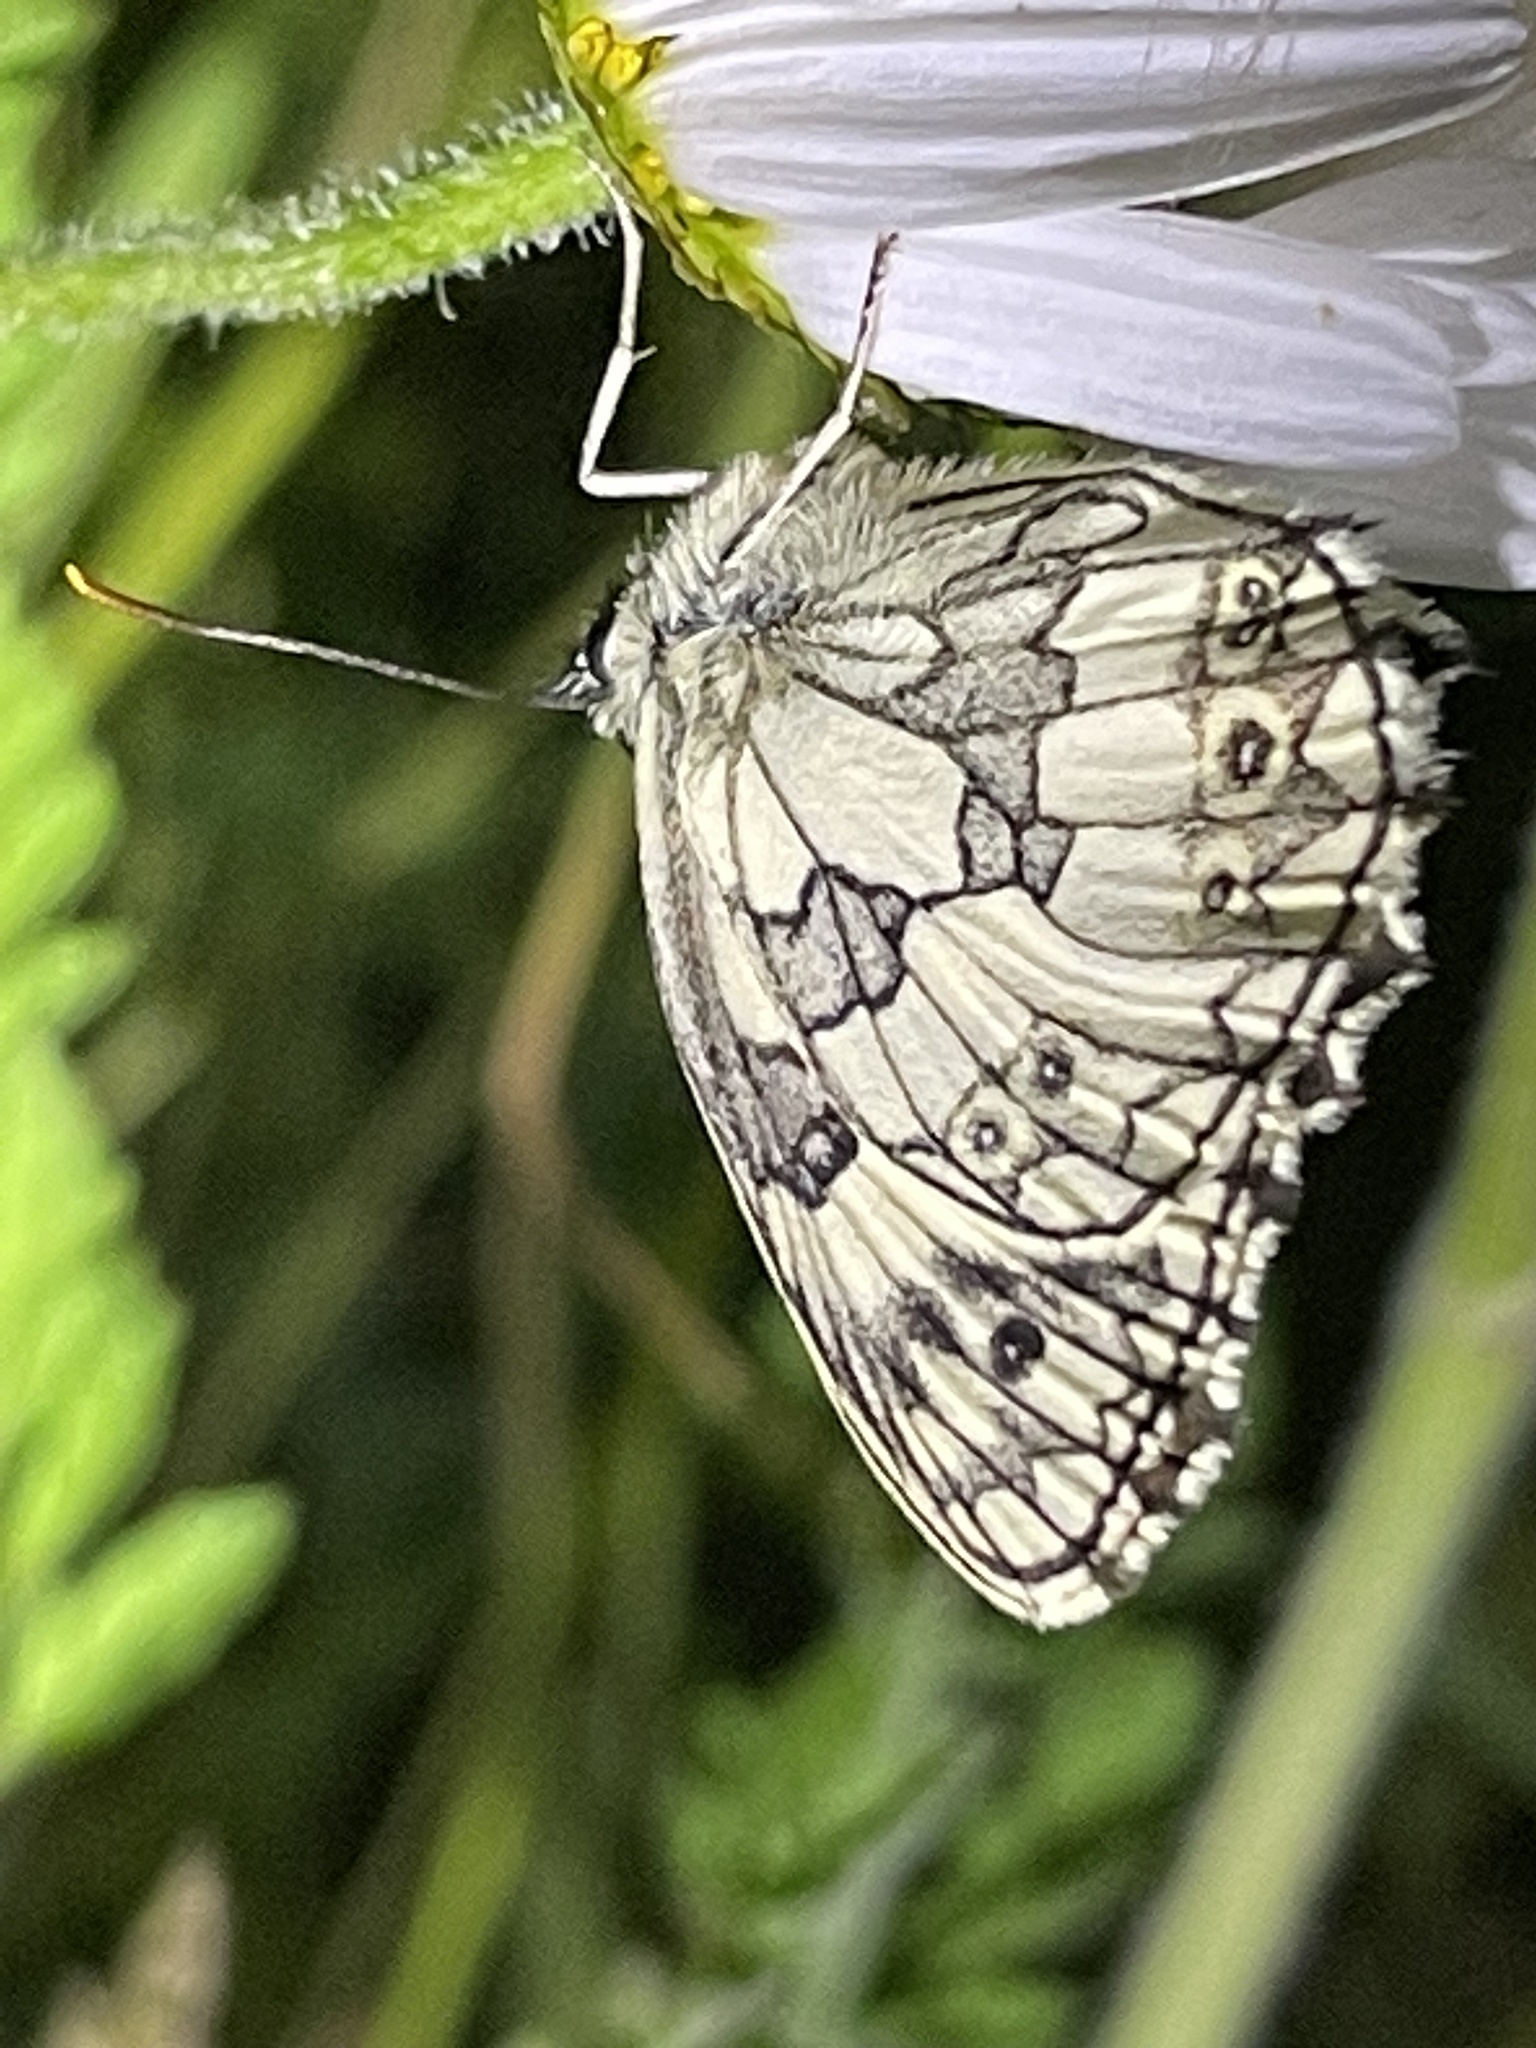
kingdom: Animalia
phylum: Arthropoda
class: Insecta
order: Lepidoptera
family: Nymphalidae
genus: Melanargia
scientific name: Melanargia galathea
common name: Marbled white
